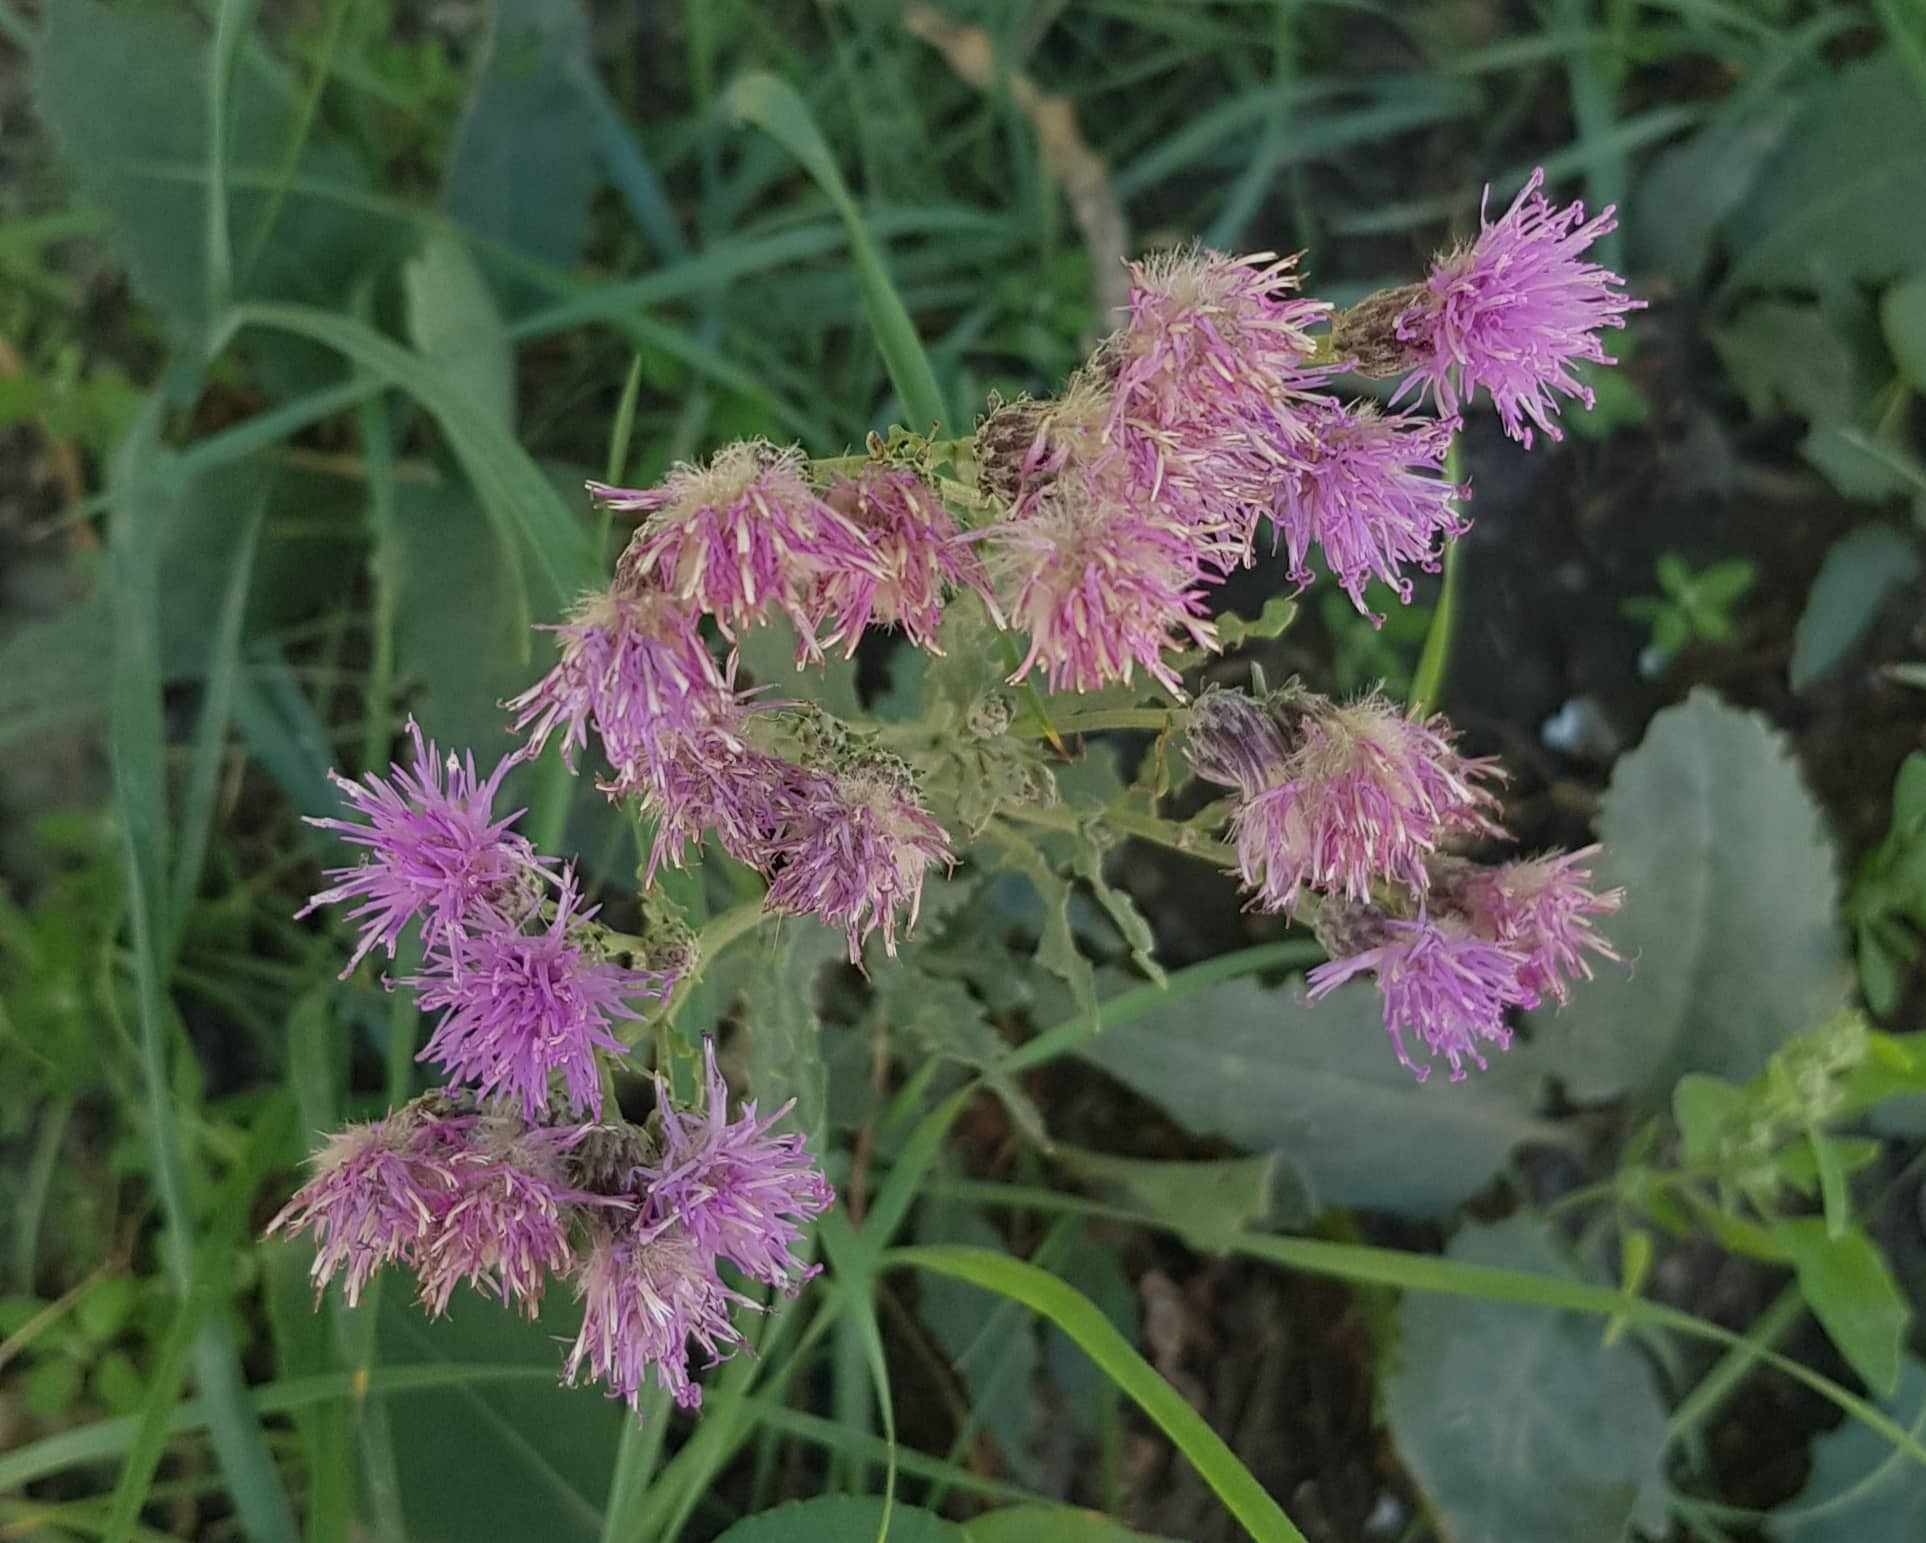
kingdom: Plantae
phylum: Tracheophyta
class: Magnoliopsida
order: Asterales
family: Asteraceae
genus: Saussurea
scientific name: Saussurea amara
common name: Alberta sawwort
